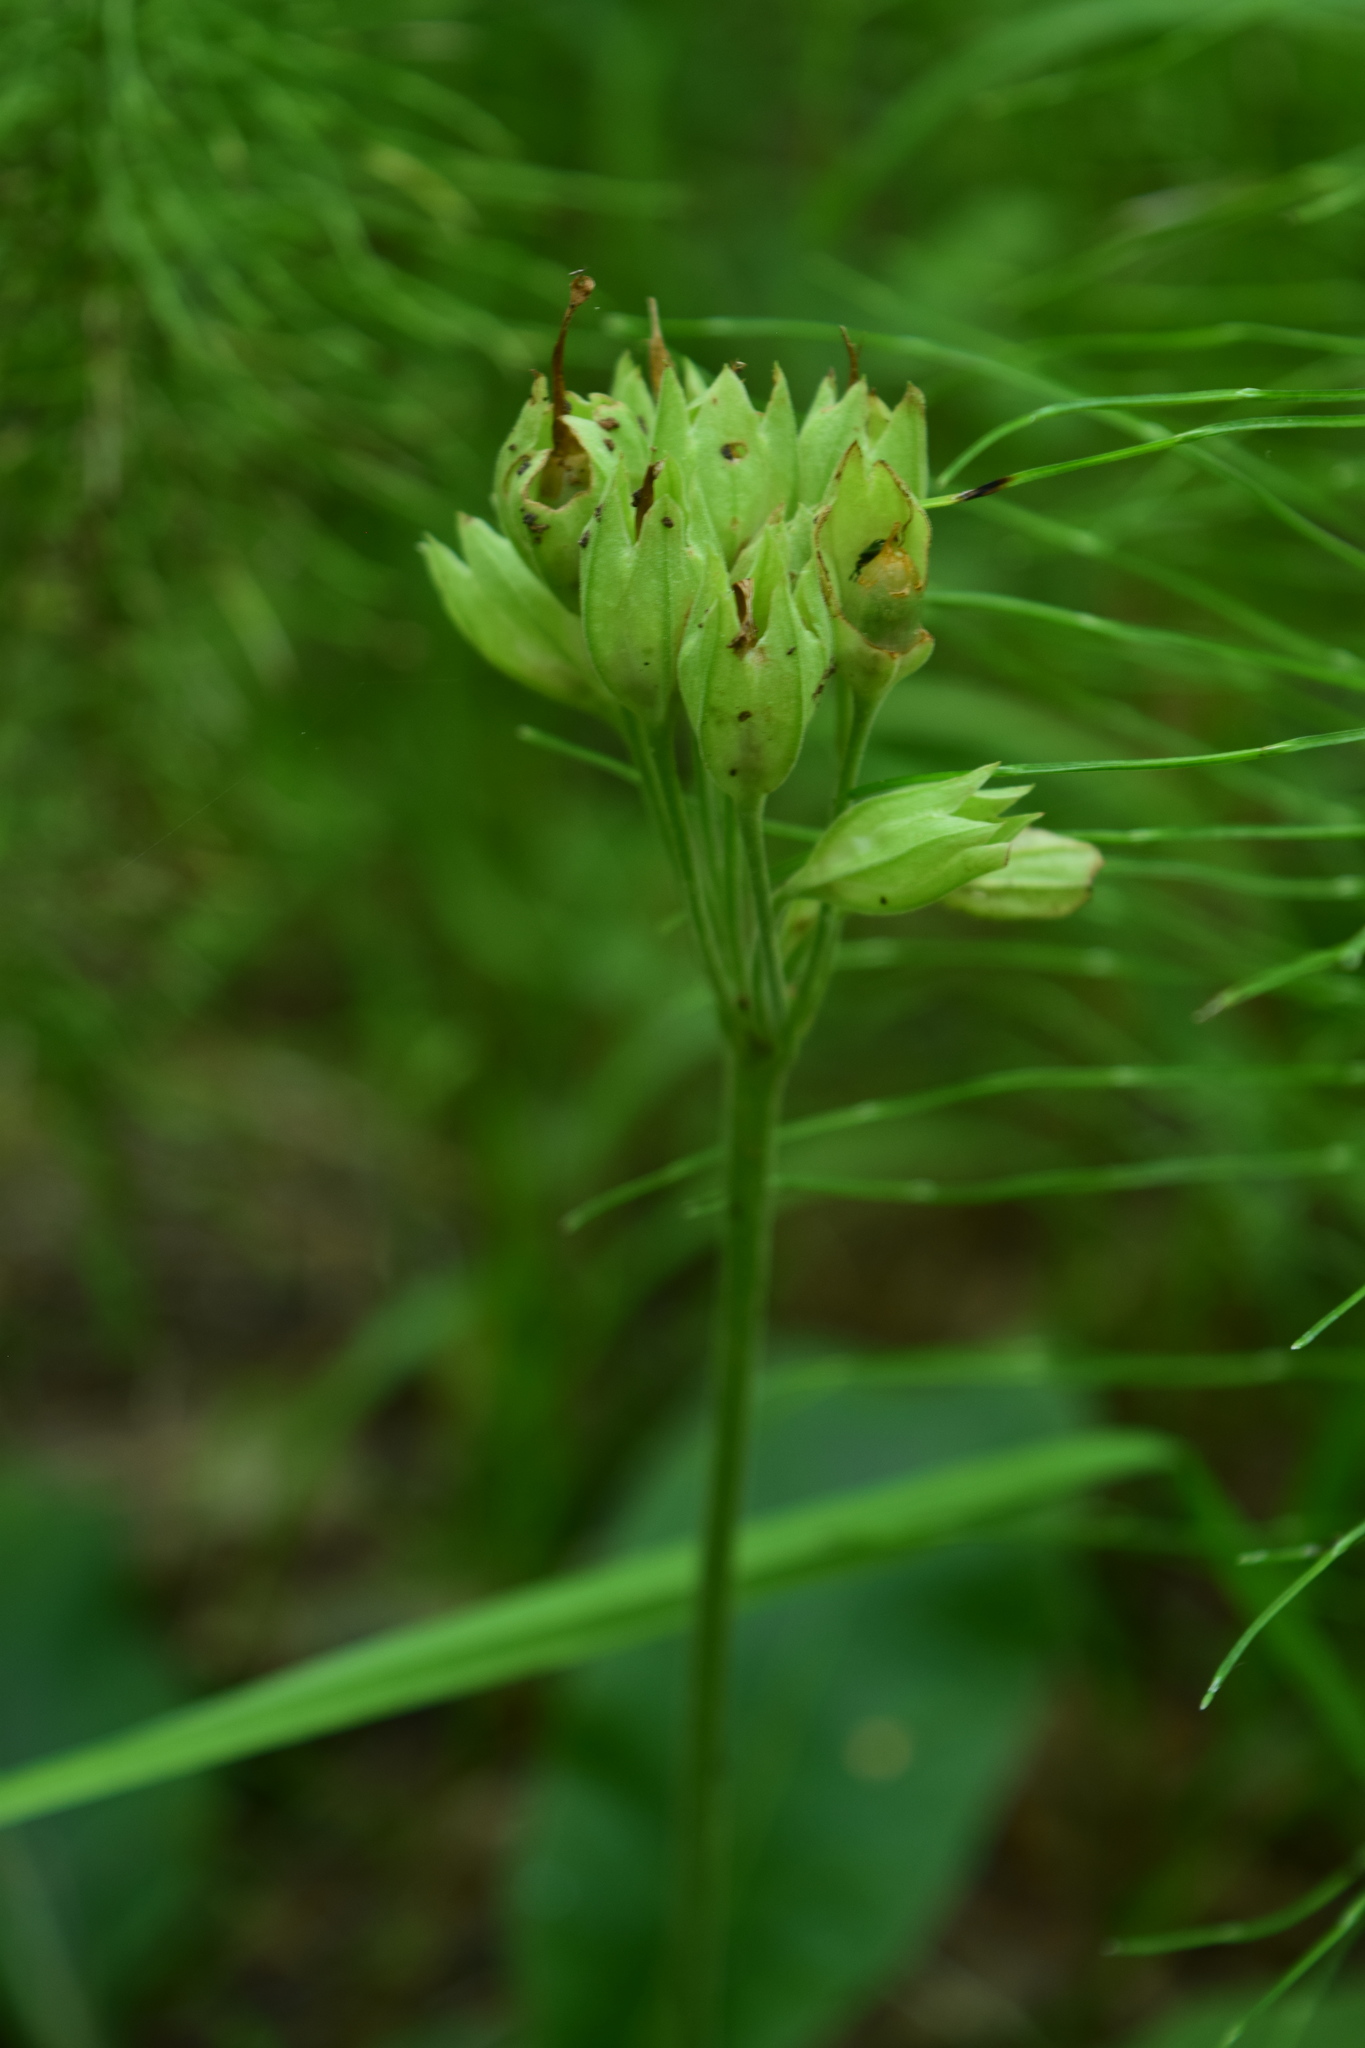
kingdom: Plantae
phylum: Tracheophyta
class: Magnoliopsida
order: Ericales
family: Primulaceae
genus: Primula
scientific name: Primula veris
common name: Cowslip
